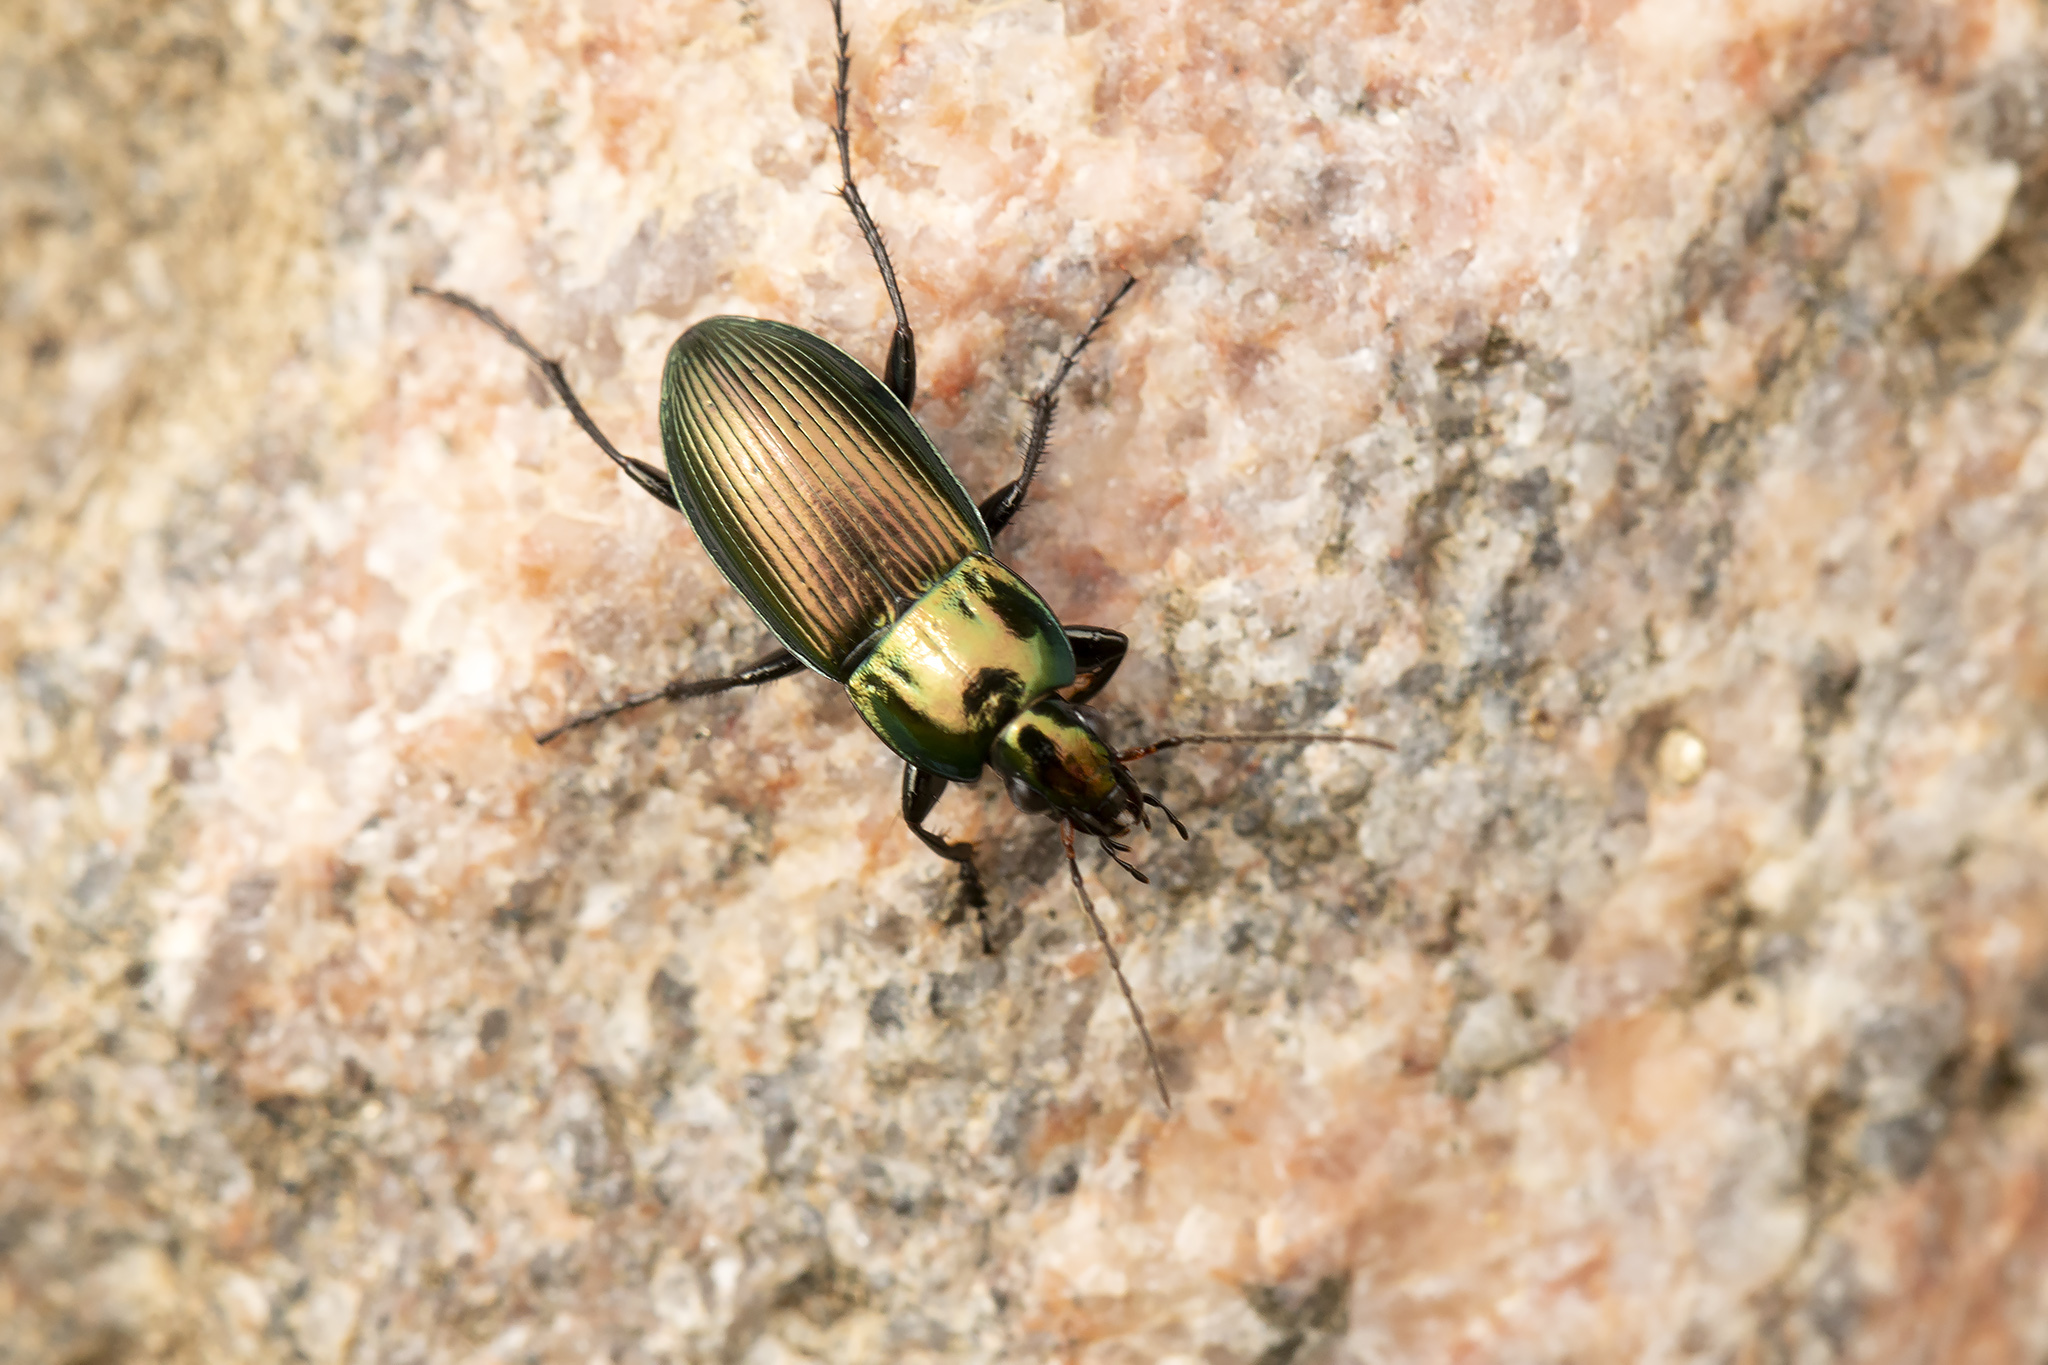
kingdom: Animalia
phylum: Arthropoda
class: Insecta
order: Coleoptera
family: Carabidae
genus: Poecilus
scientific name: Poecilus cupreus
